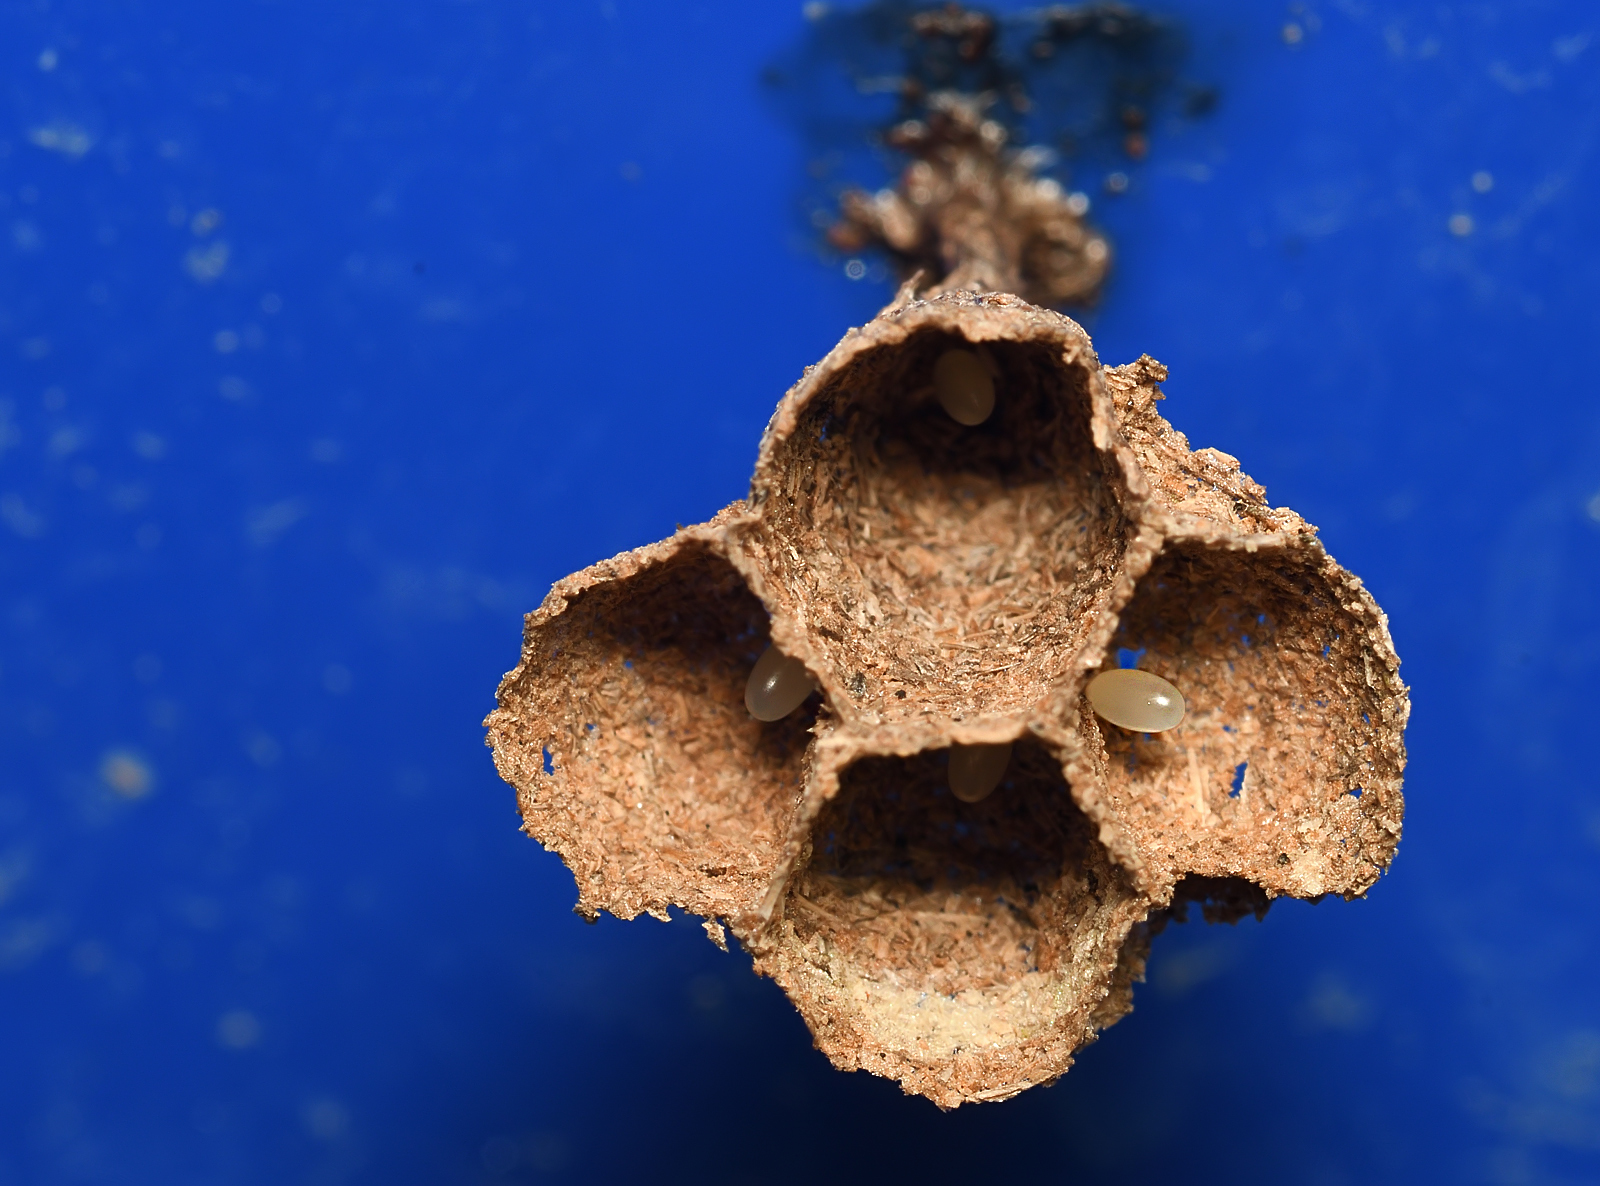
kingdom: Animalia
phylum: Arthropoda
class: Insecta
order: Hymenoptera
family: Vespidae
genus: Ropalidia
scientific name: Ropalidia
